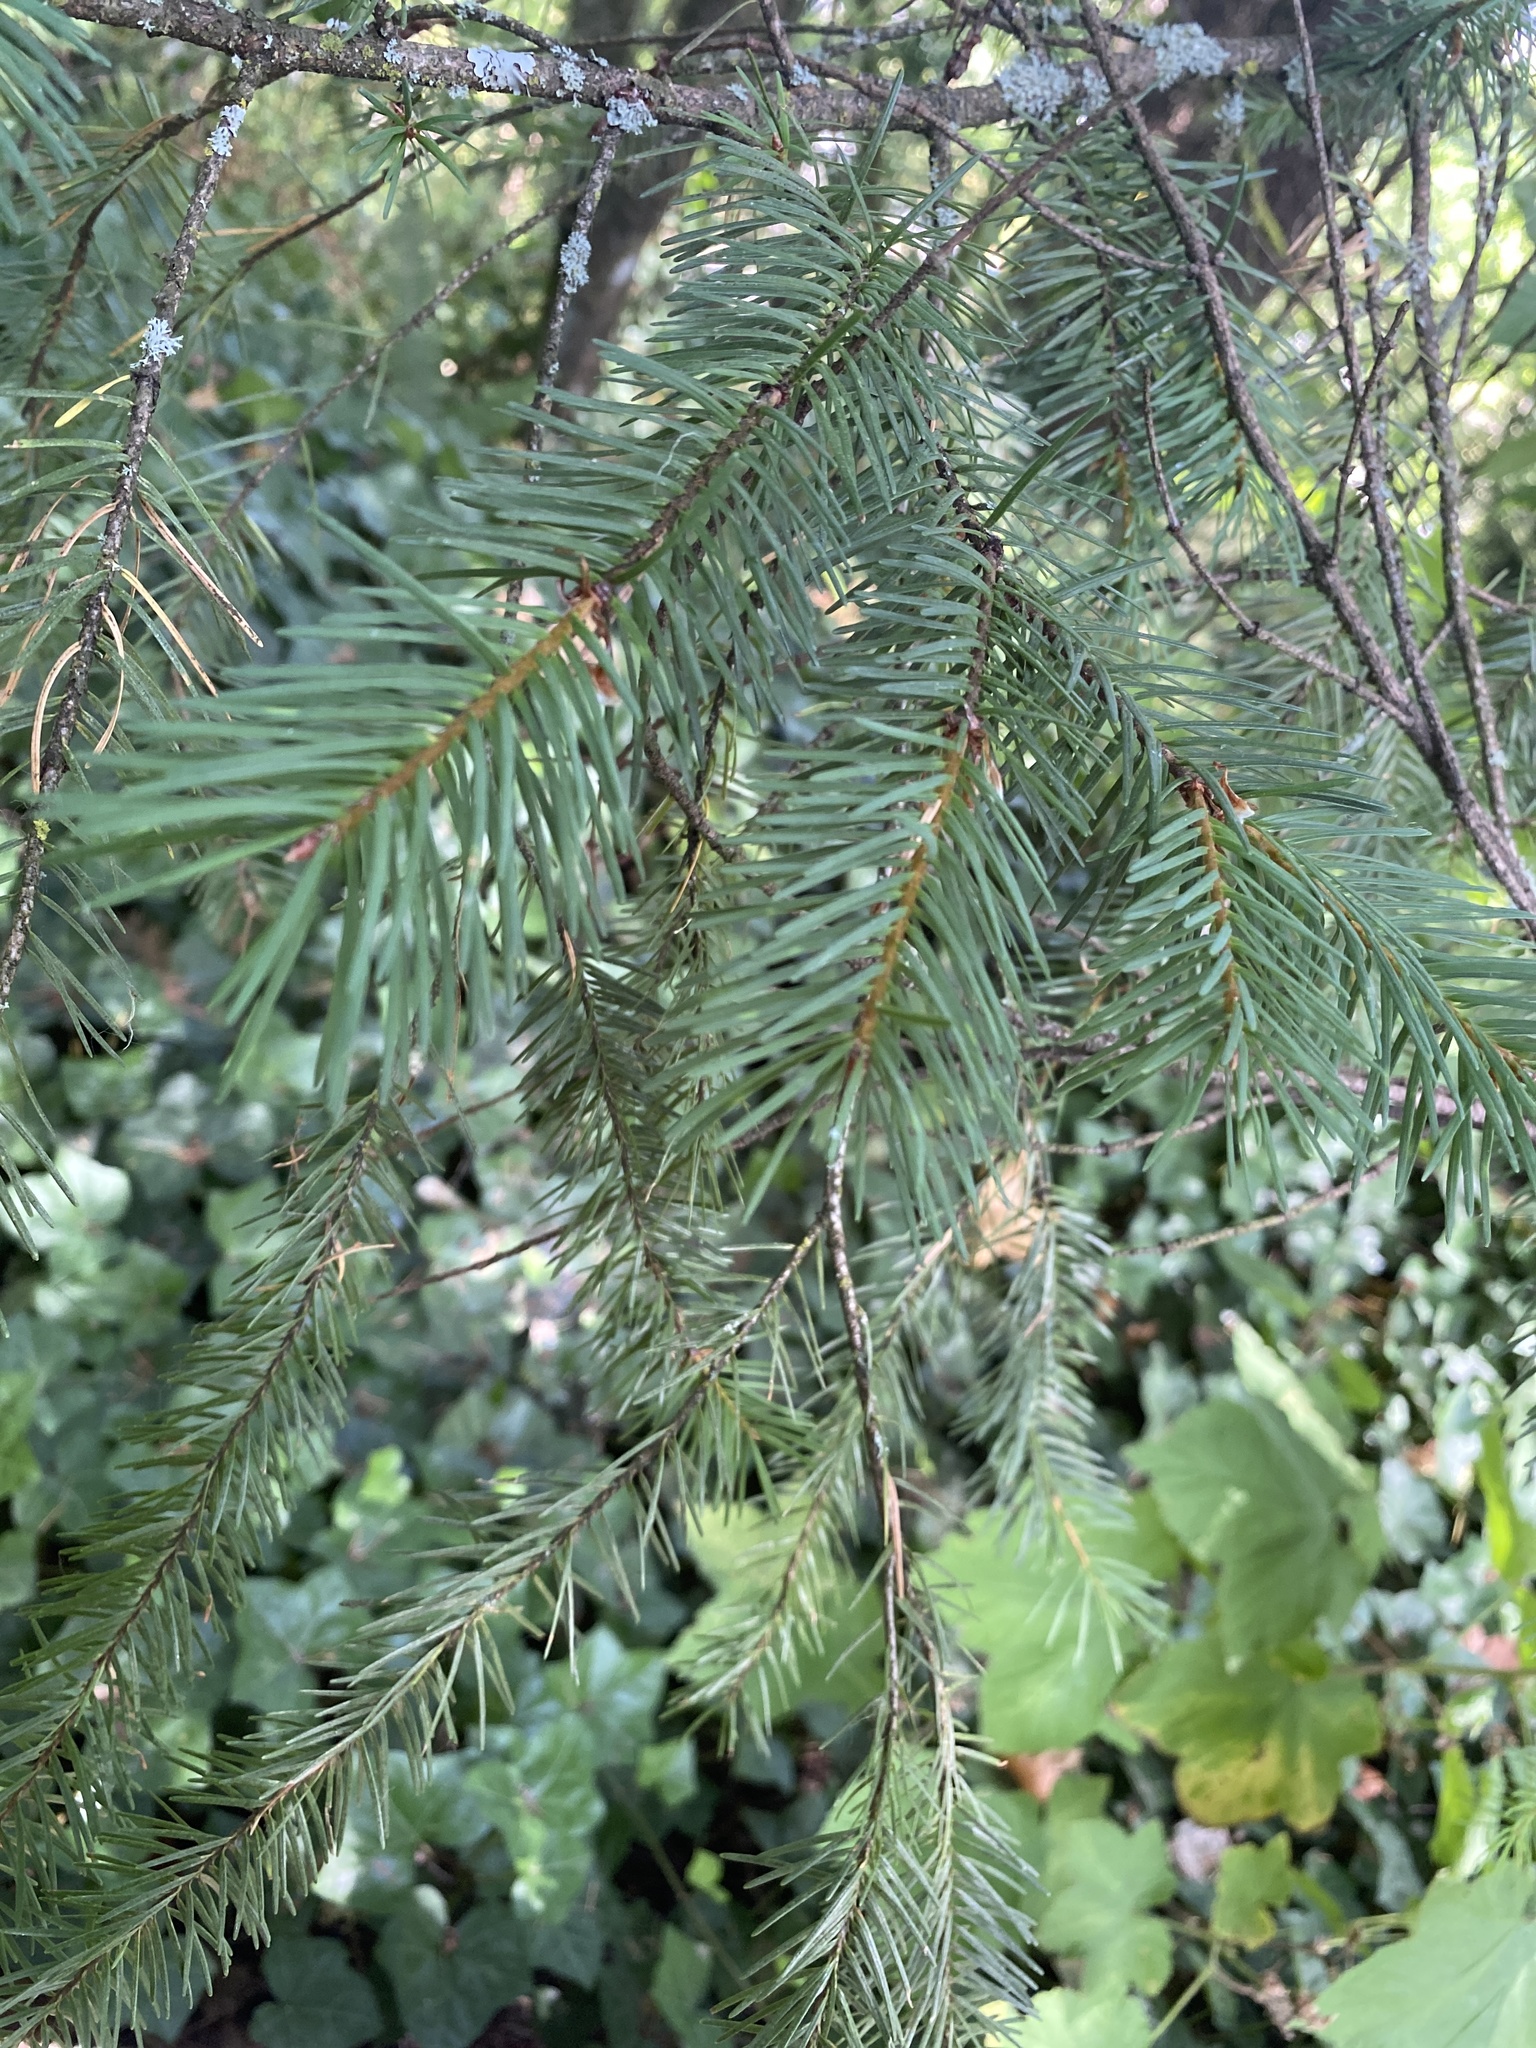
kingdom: Plantae
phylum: Tracheophyta
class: Pinopsida
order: Pinales
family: Pinaceae
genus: Pseudotsuga
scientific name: Pseudotsuga menziesii
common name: Douglas fir
